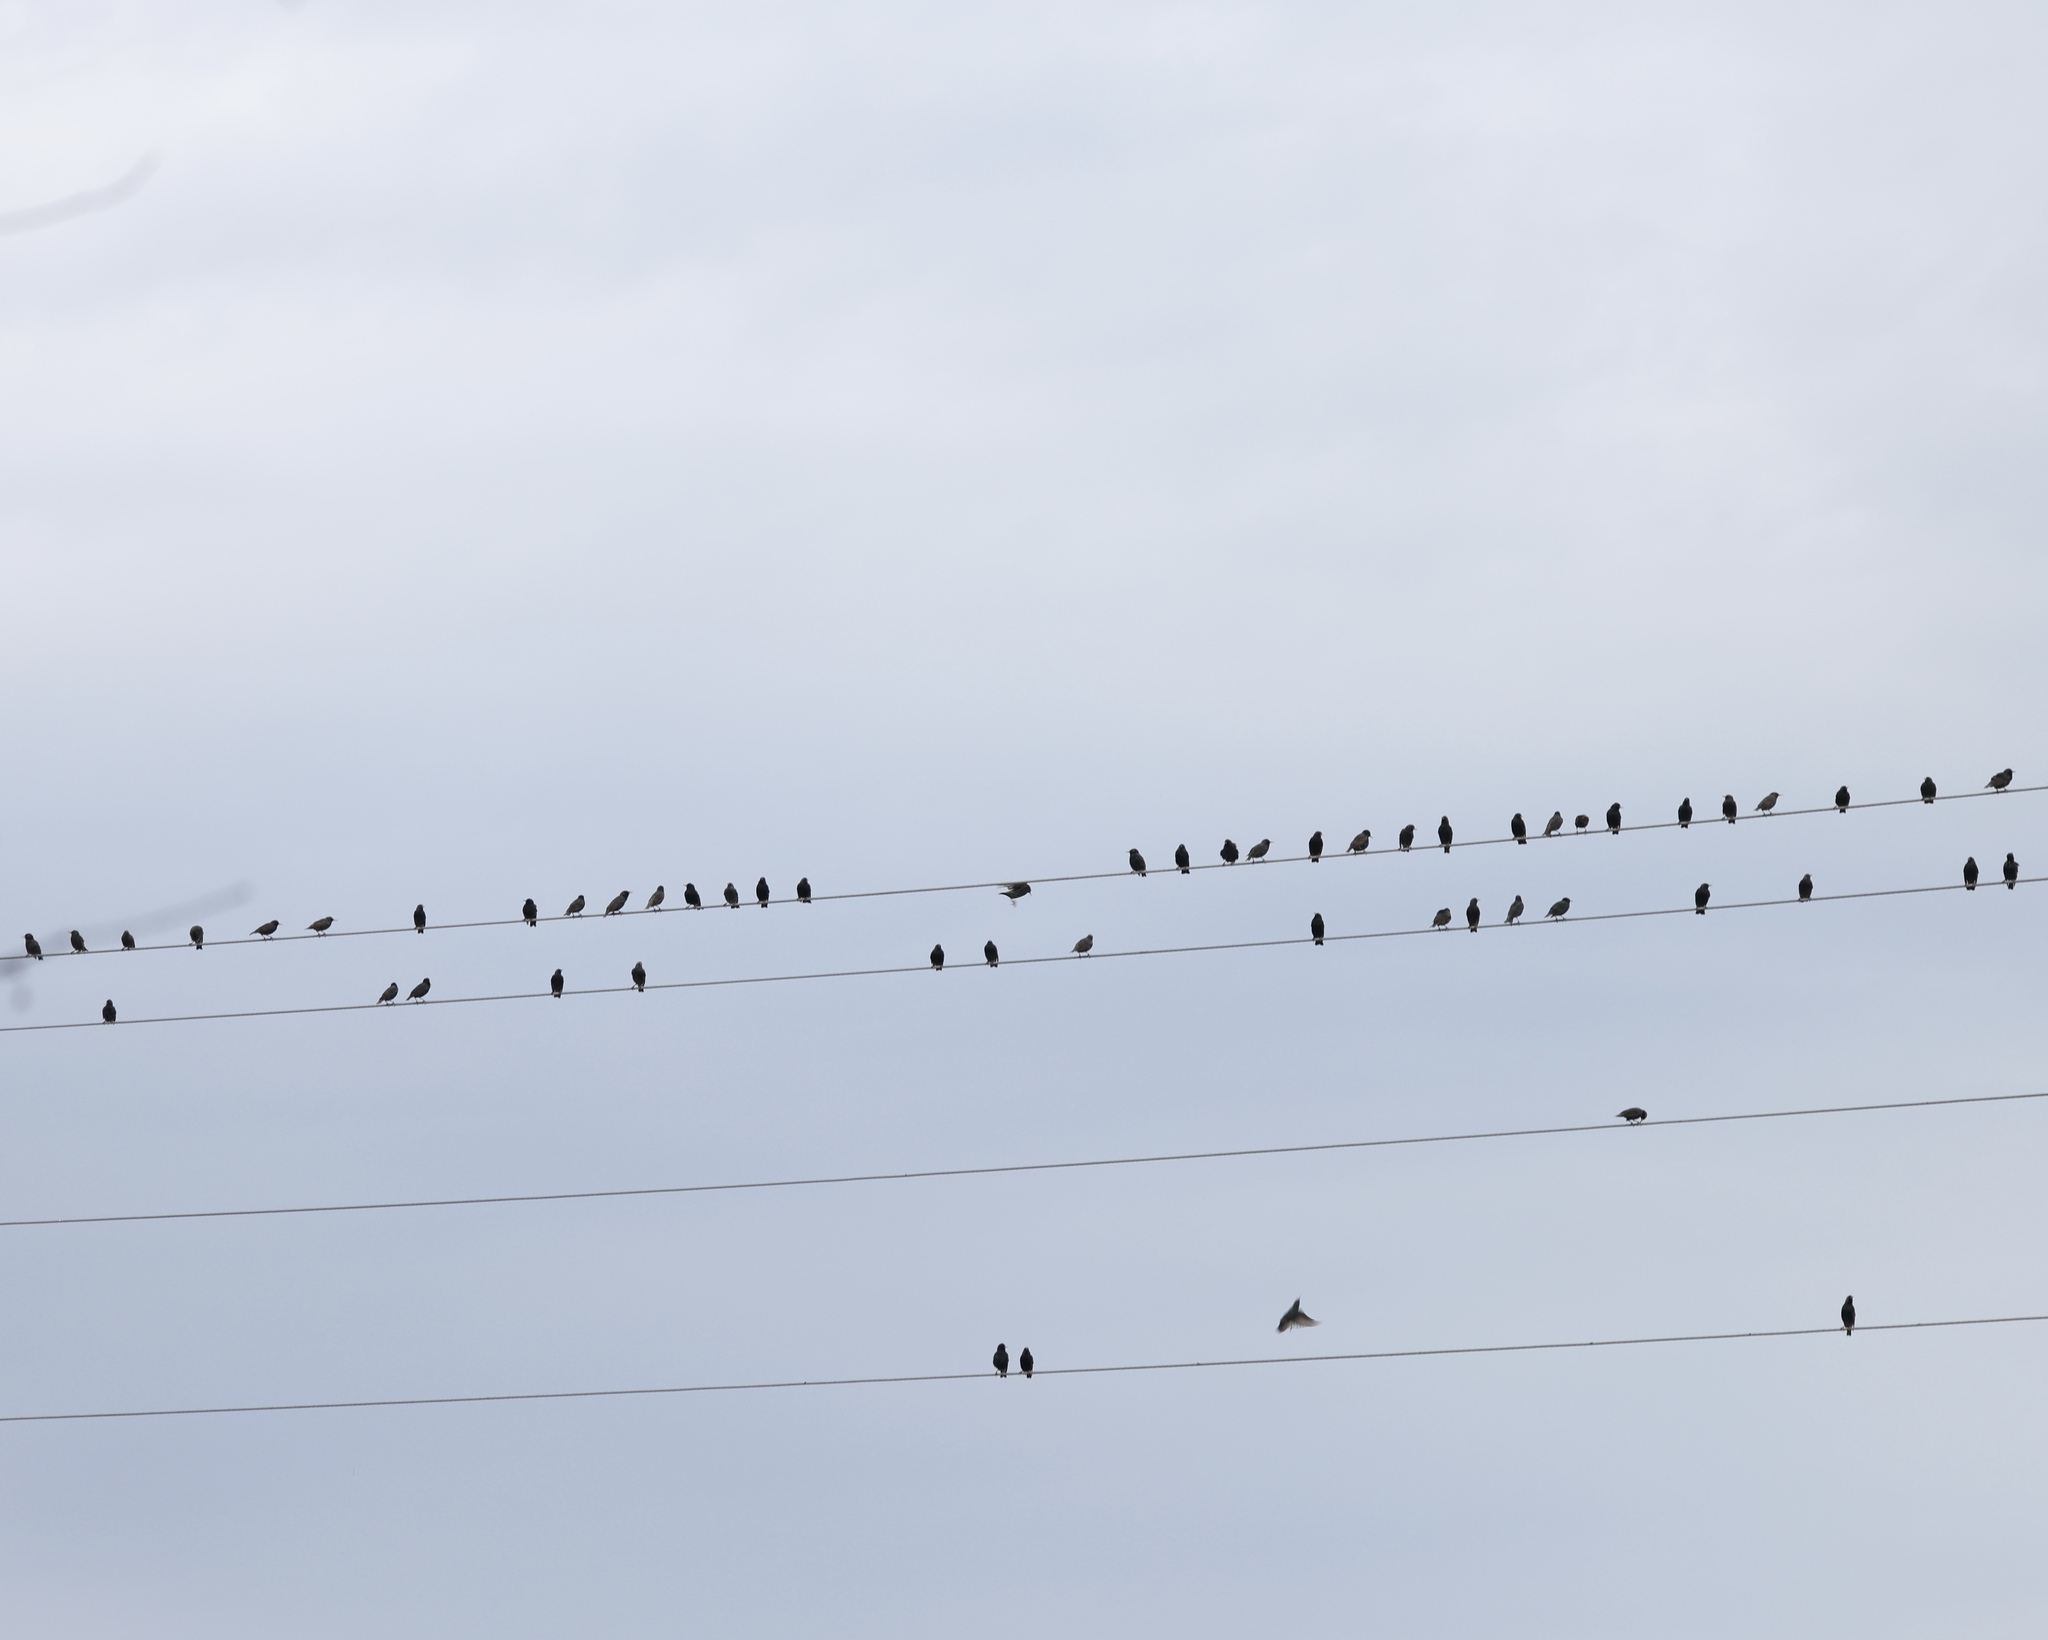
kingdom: Animalia
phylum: Chordata
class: Aves
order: Passeriformes
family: Sturnidae
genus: Sturnus
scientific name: Sturnus vulgaris
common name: Common starling
